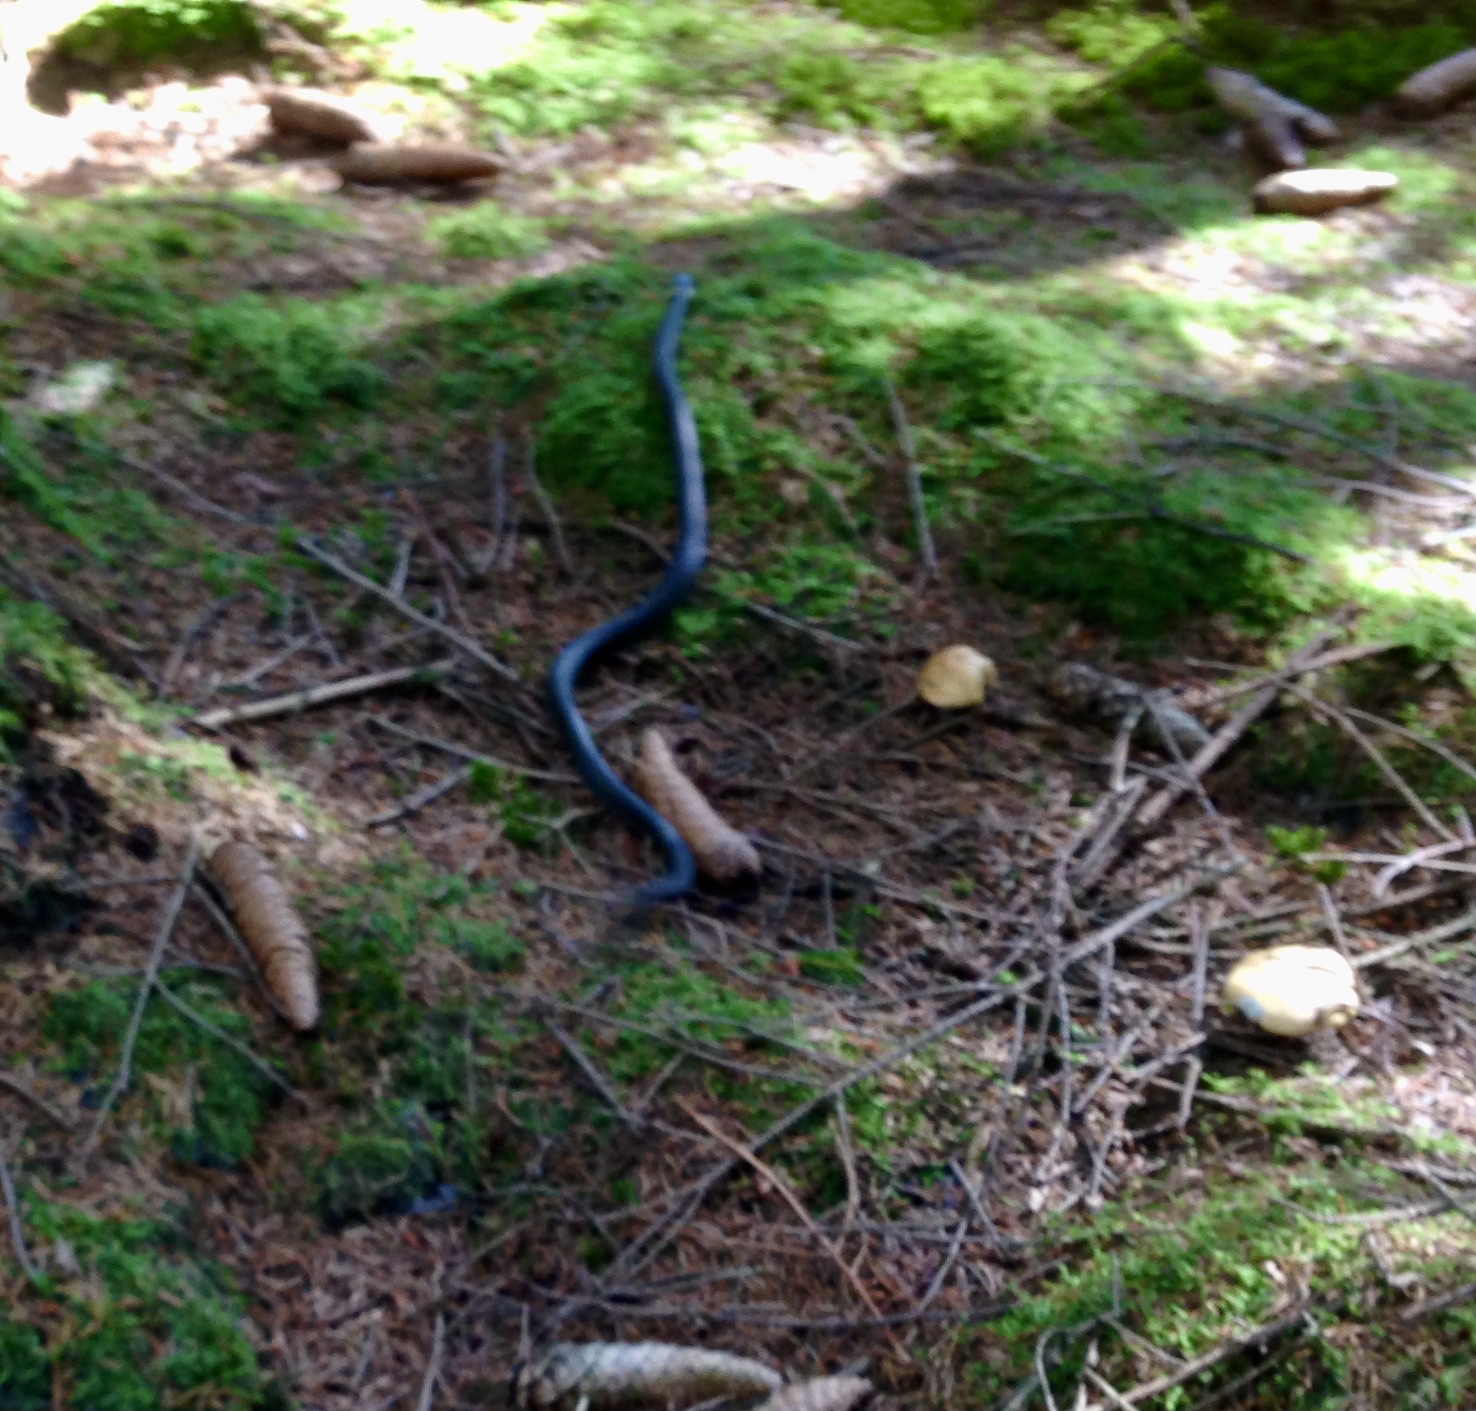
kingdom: Animalia
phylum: Chordata
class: Squamata
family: Colubridae
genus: Natrix
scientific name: Natrix natrix
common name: Grass snake
